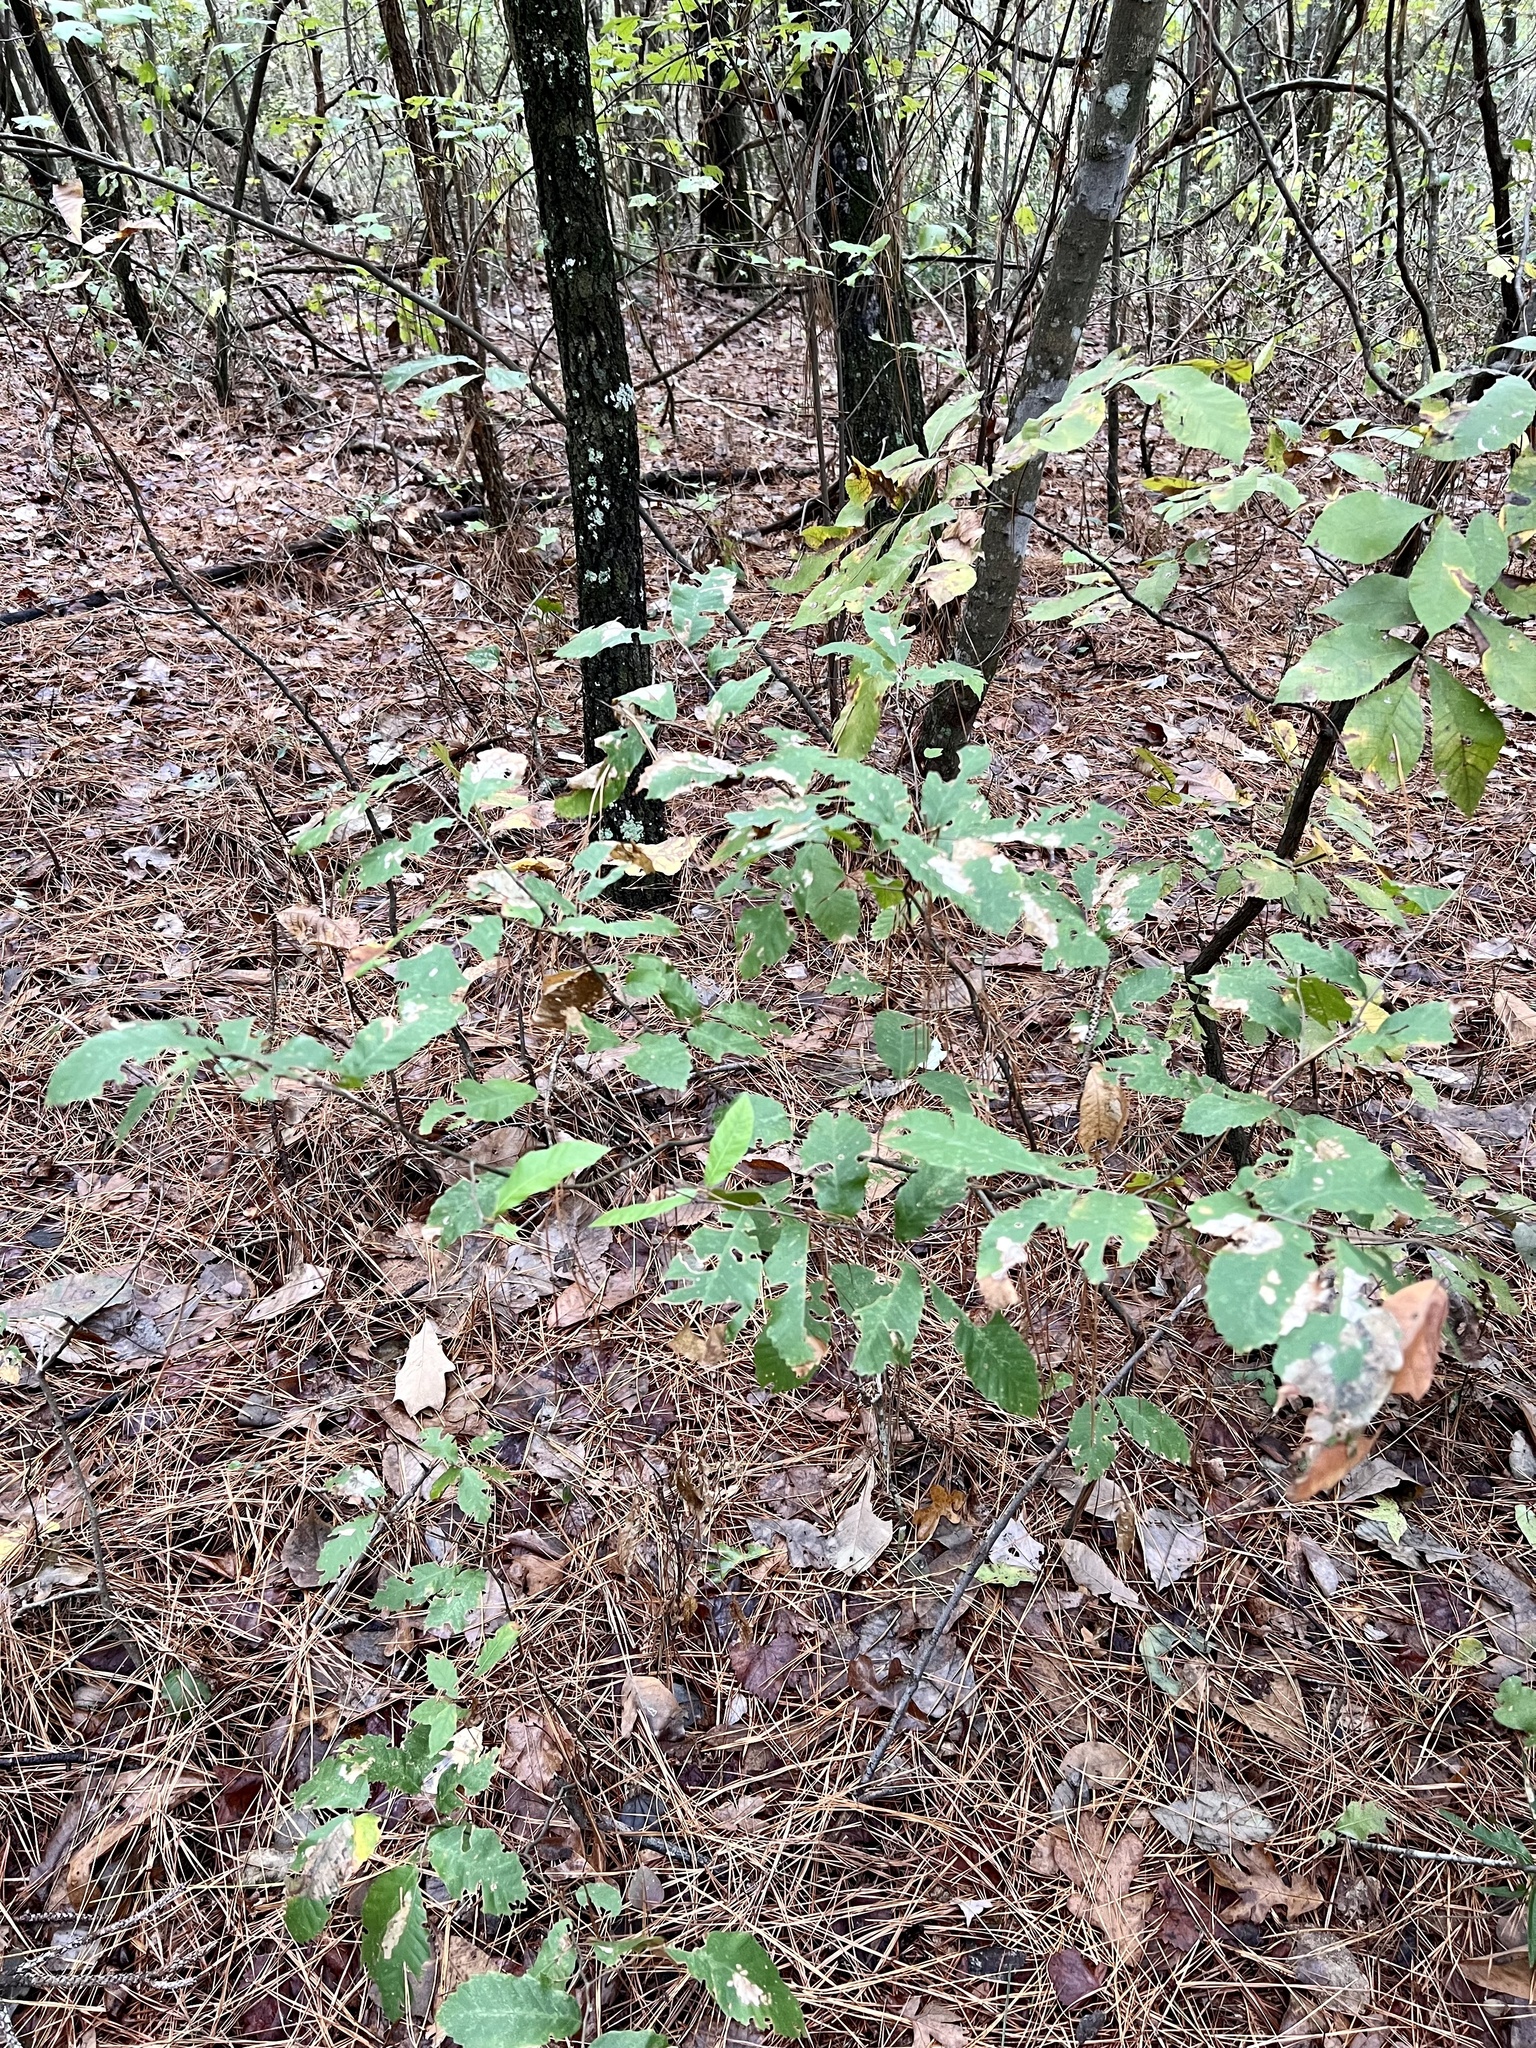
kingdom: Plantae
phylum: Tracheophyta
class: Magnoliopsida
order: Cornales
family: Cornaceae
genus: Cornus
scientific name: Cornus florida
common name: Flowering dogwood
